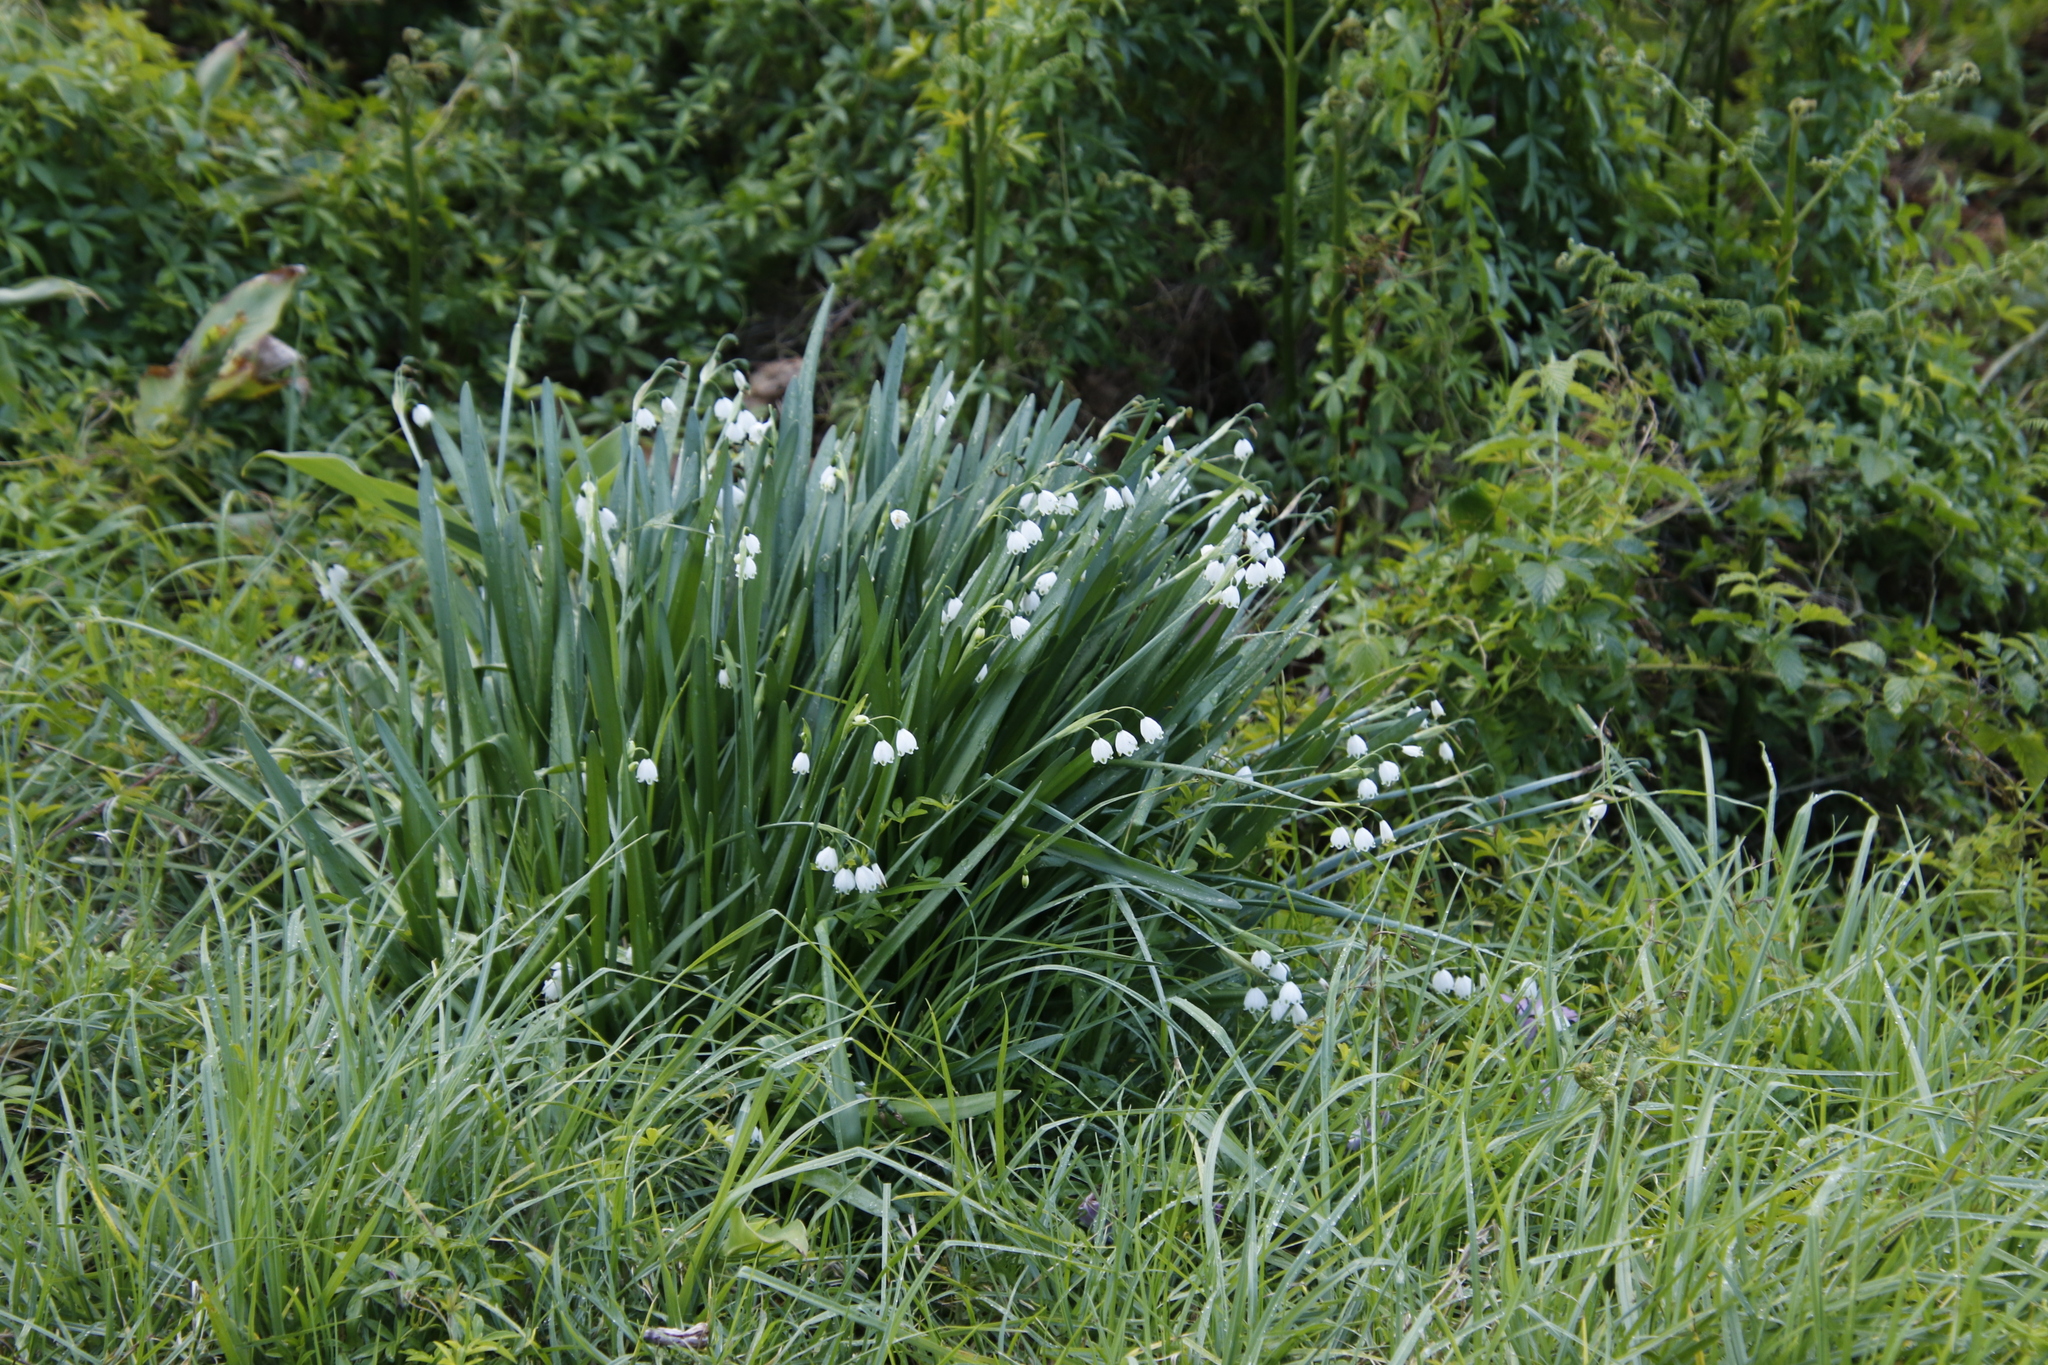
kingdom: Plantae
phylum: Tracheophyta
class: Liliopsida
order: Asparagales
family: Amaryllidaceae
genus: Leucojum
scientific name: Leucojum aestivum
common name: Summer snowflake
